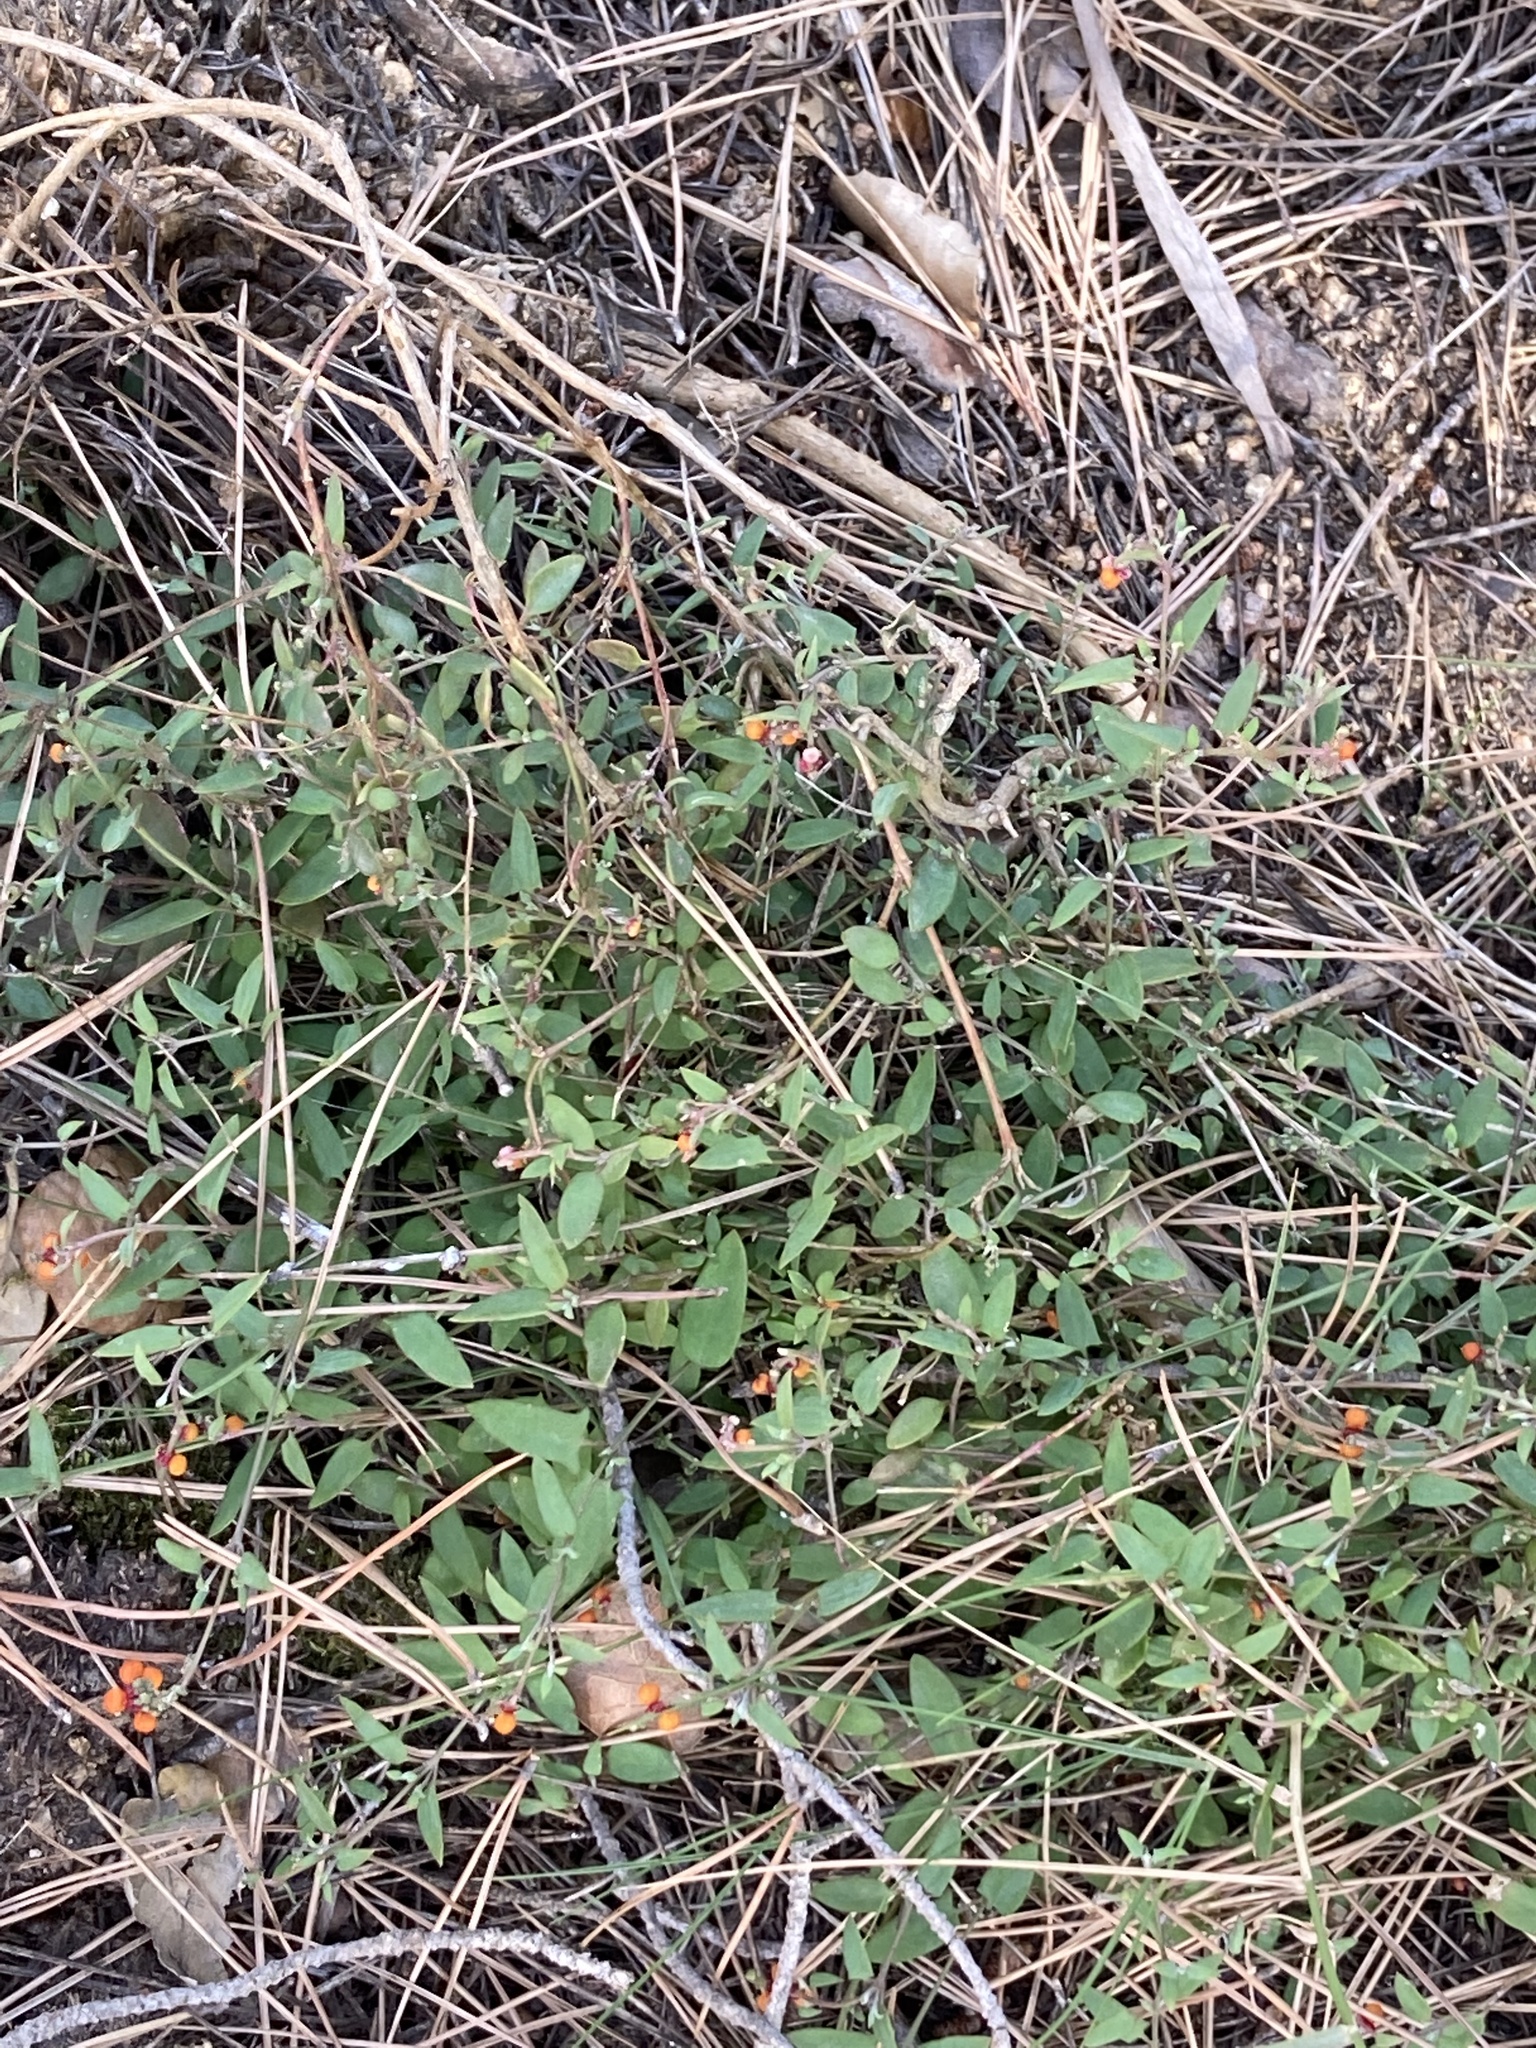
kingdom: Plantae
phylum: Tracheophyta
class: Magnoliopsida
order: Caryophyllales
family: Amaranthaceae
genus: Chenopodium
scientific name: Chenopodium nutans
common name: Climbing-saltbush
